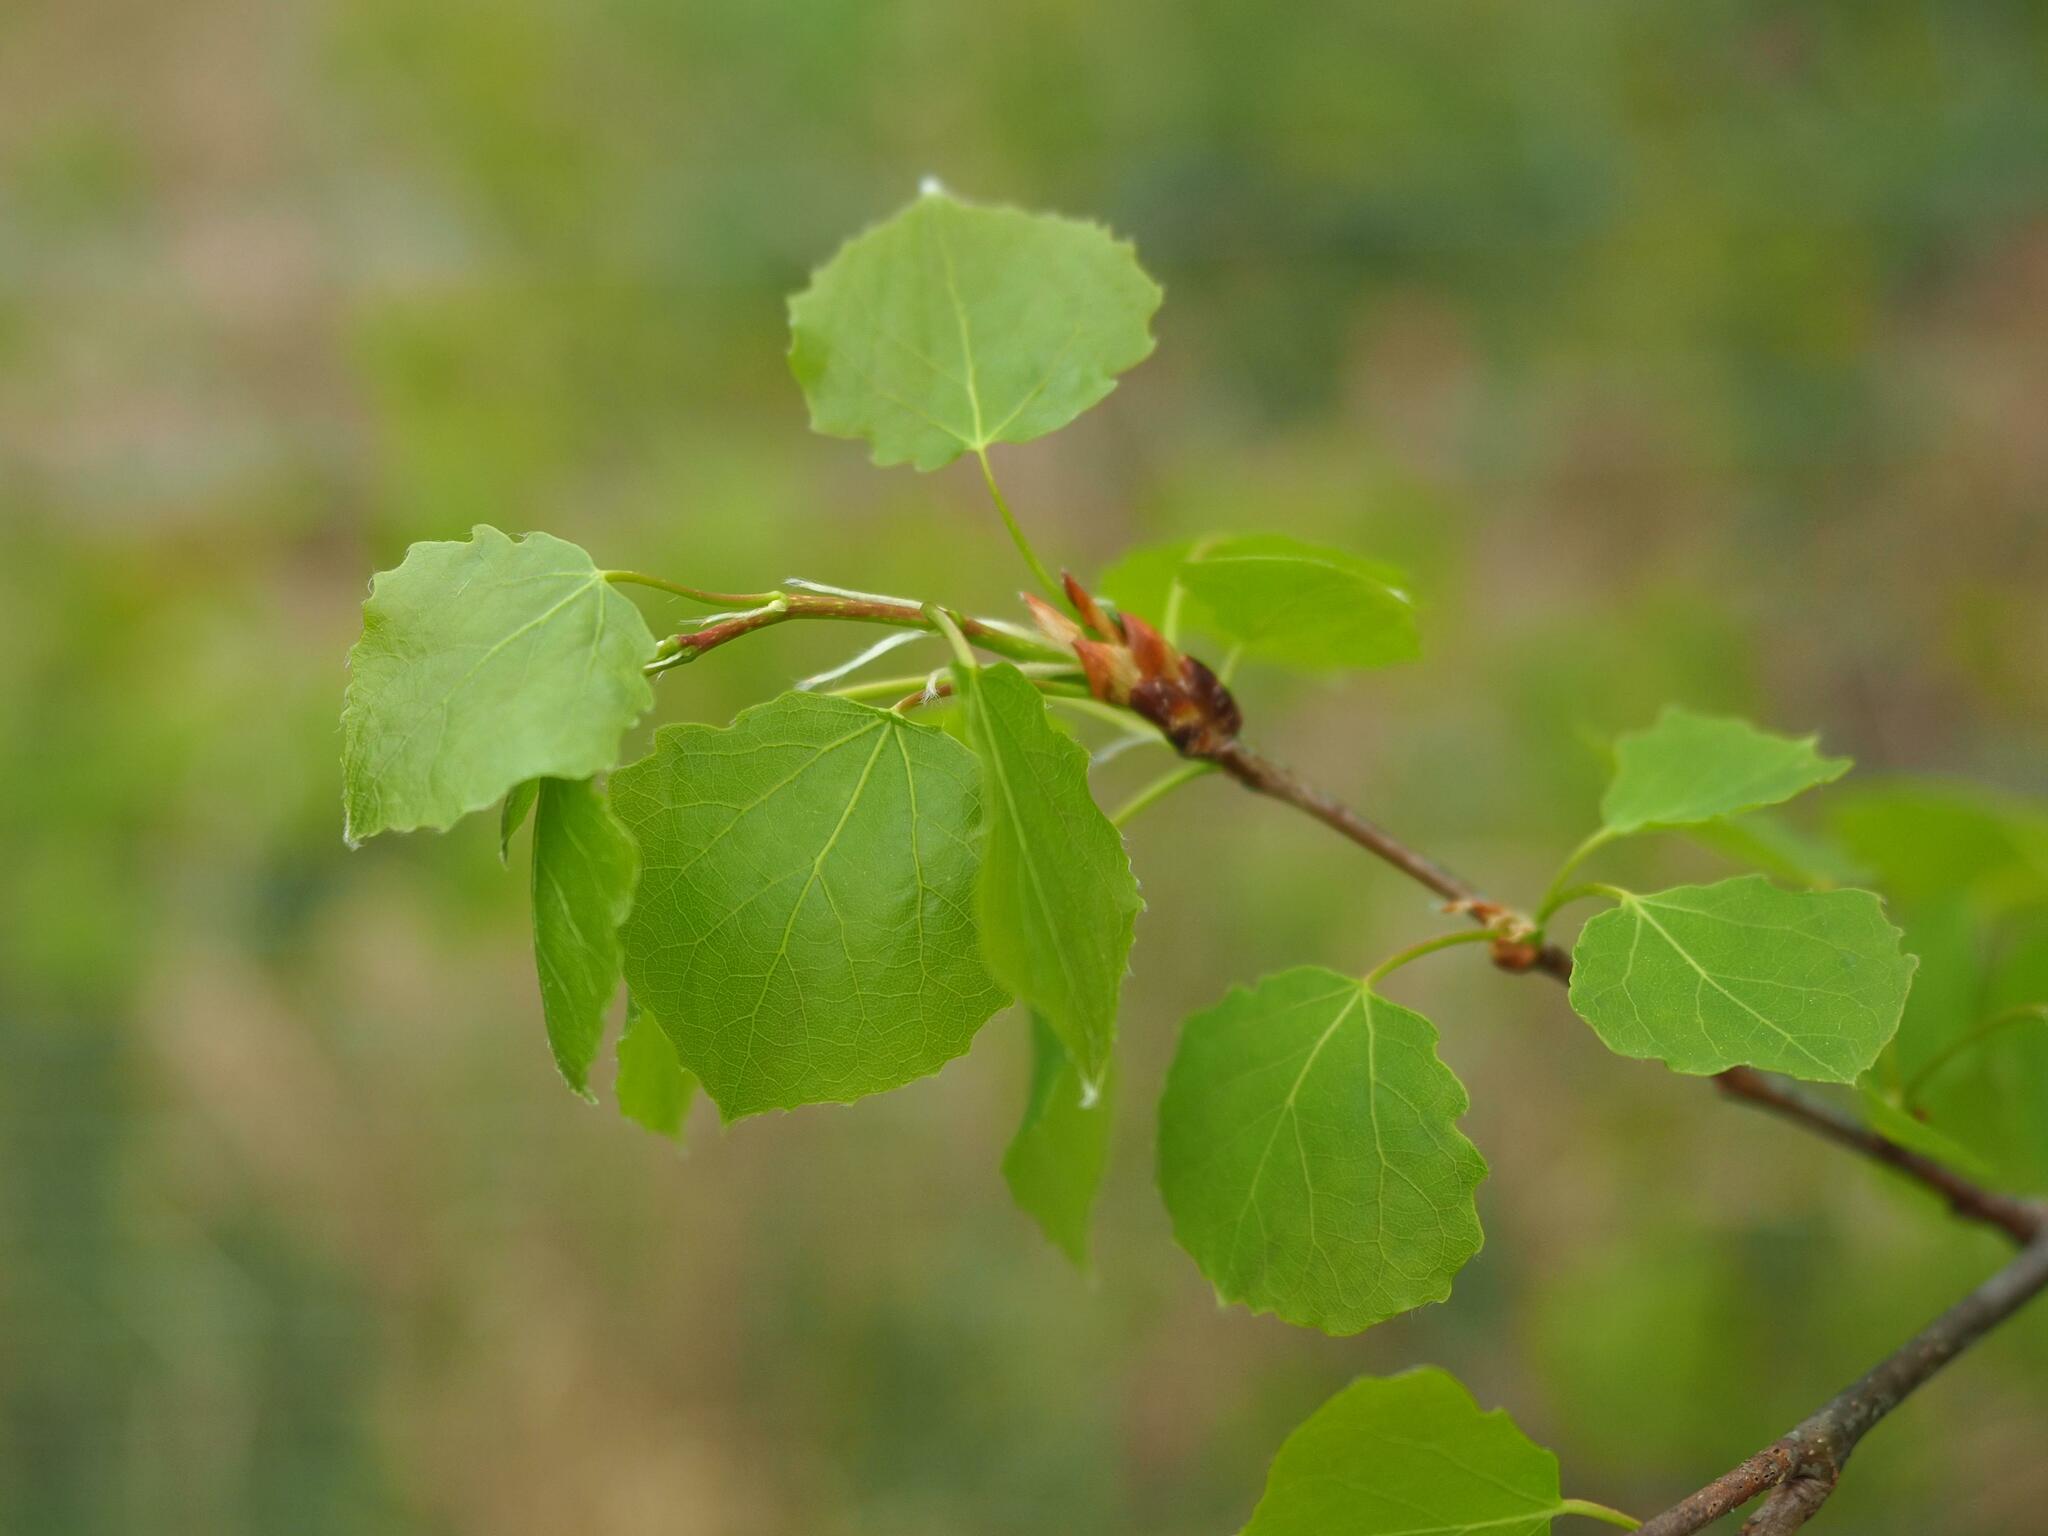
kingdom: Plantae
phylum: Tracheophyta
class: Magnoliopsida
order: Malpighiales
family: Salicaceae
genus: Populus
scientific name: Populus tremula
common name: European aspen
